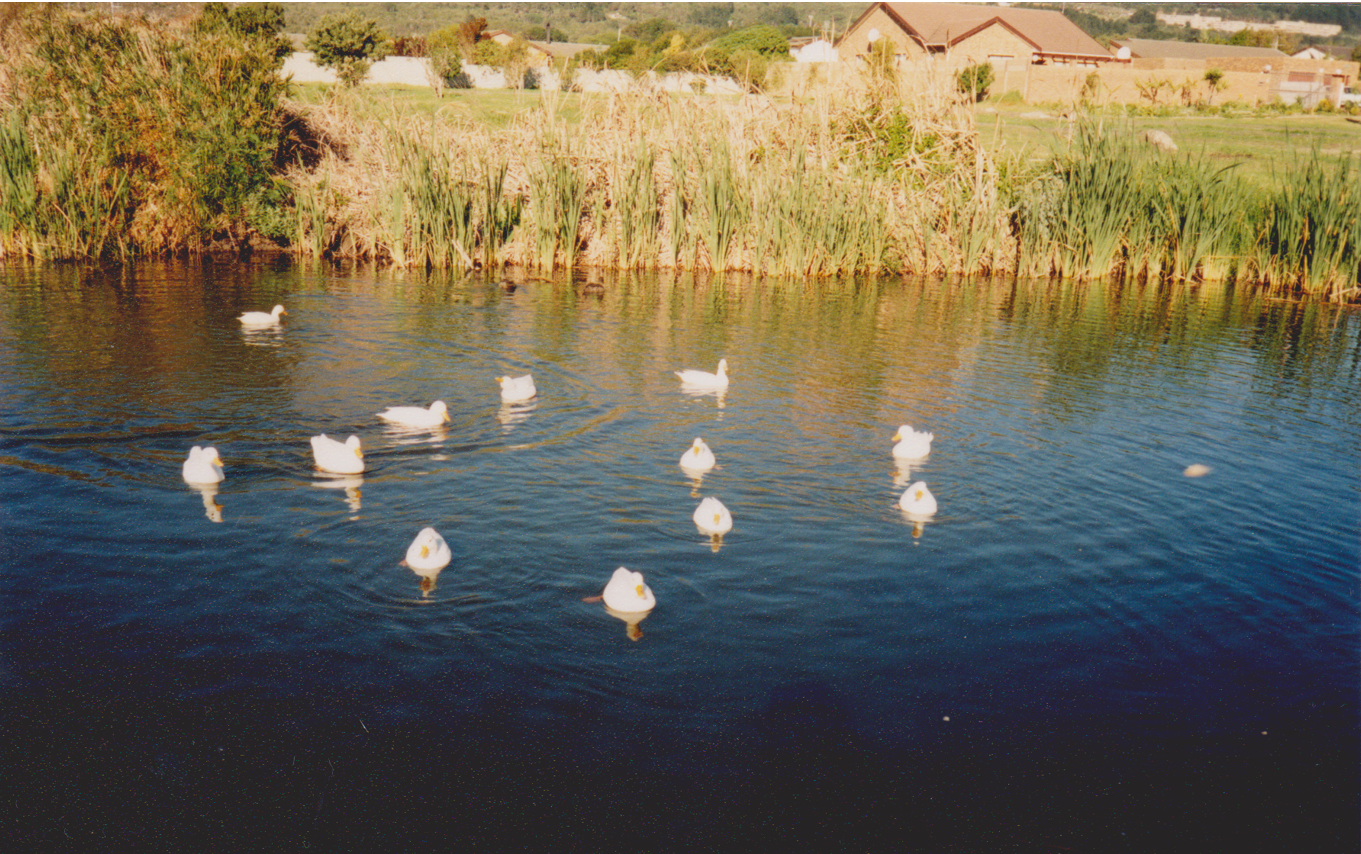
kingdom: Animalia
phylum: Chordata
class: Aves
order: Anseriformes
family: Anatidae
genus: Anas
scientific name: Anas platyrhynchos
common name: Mallard
